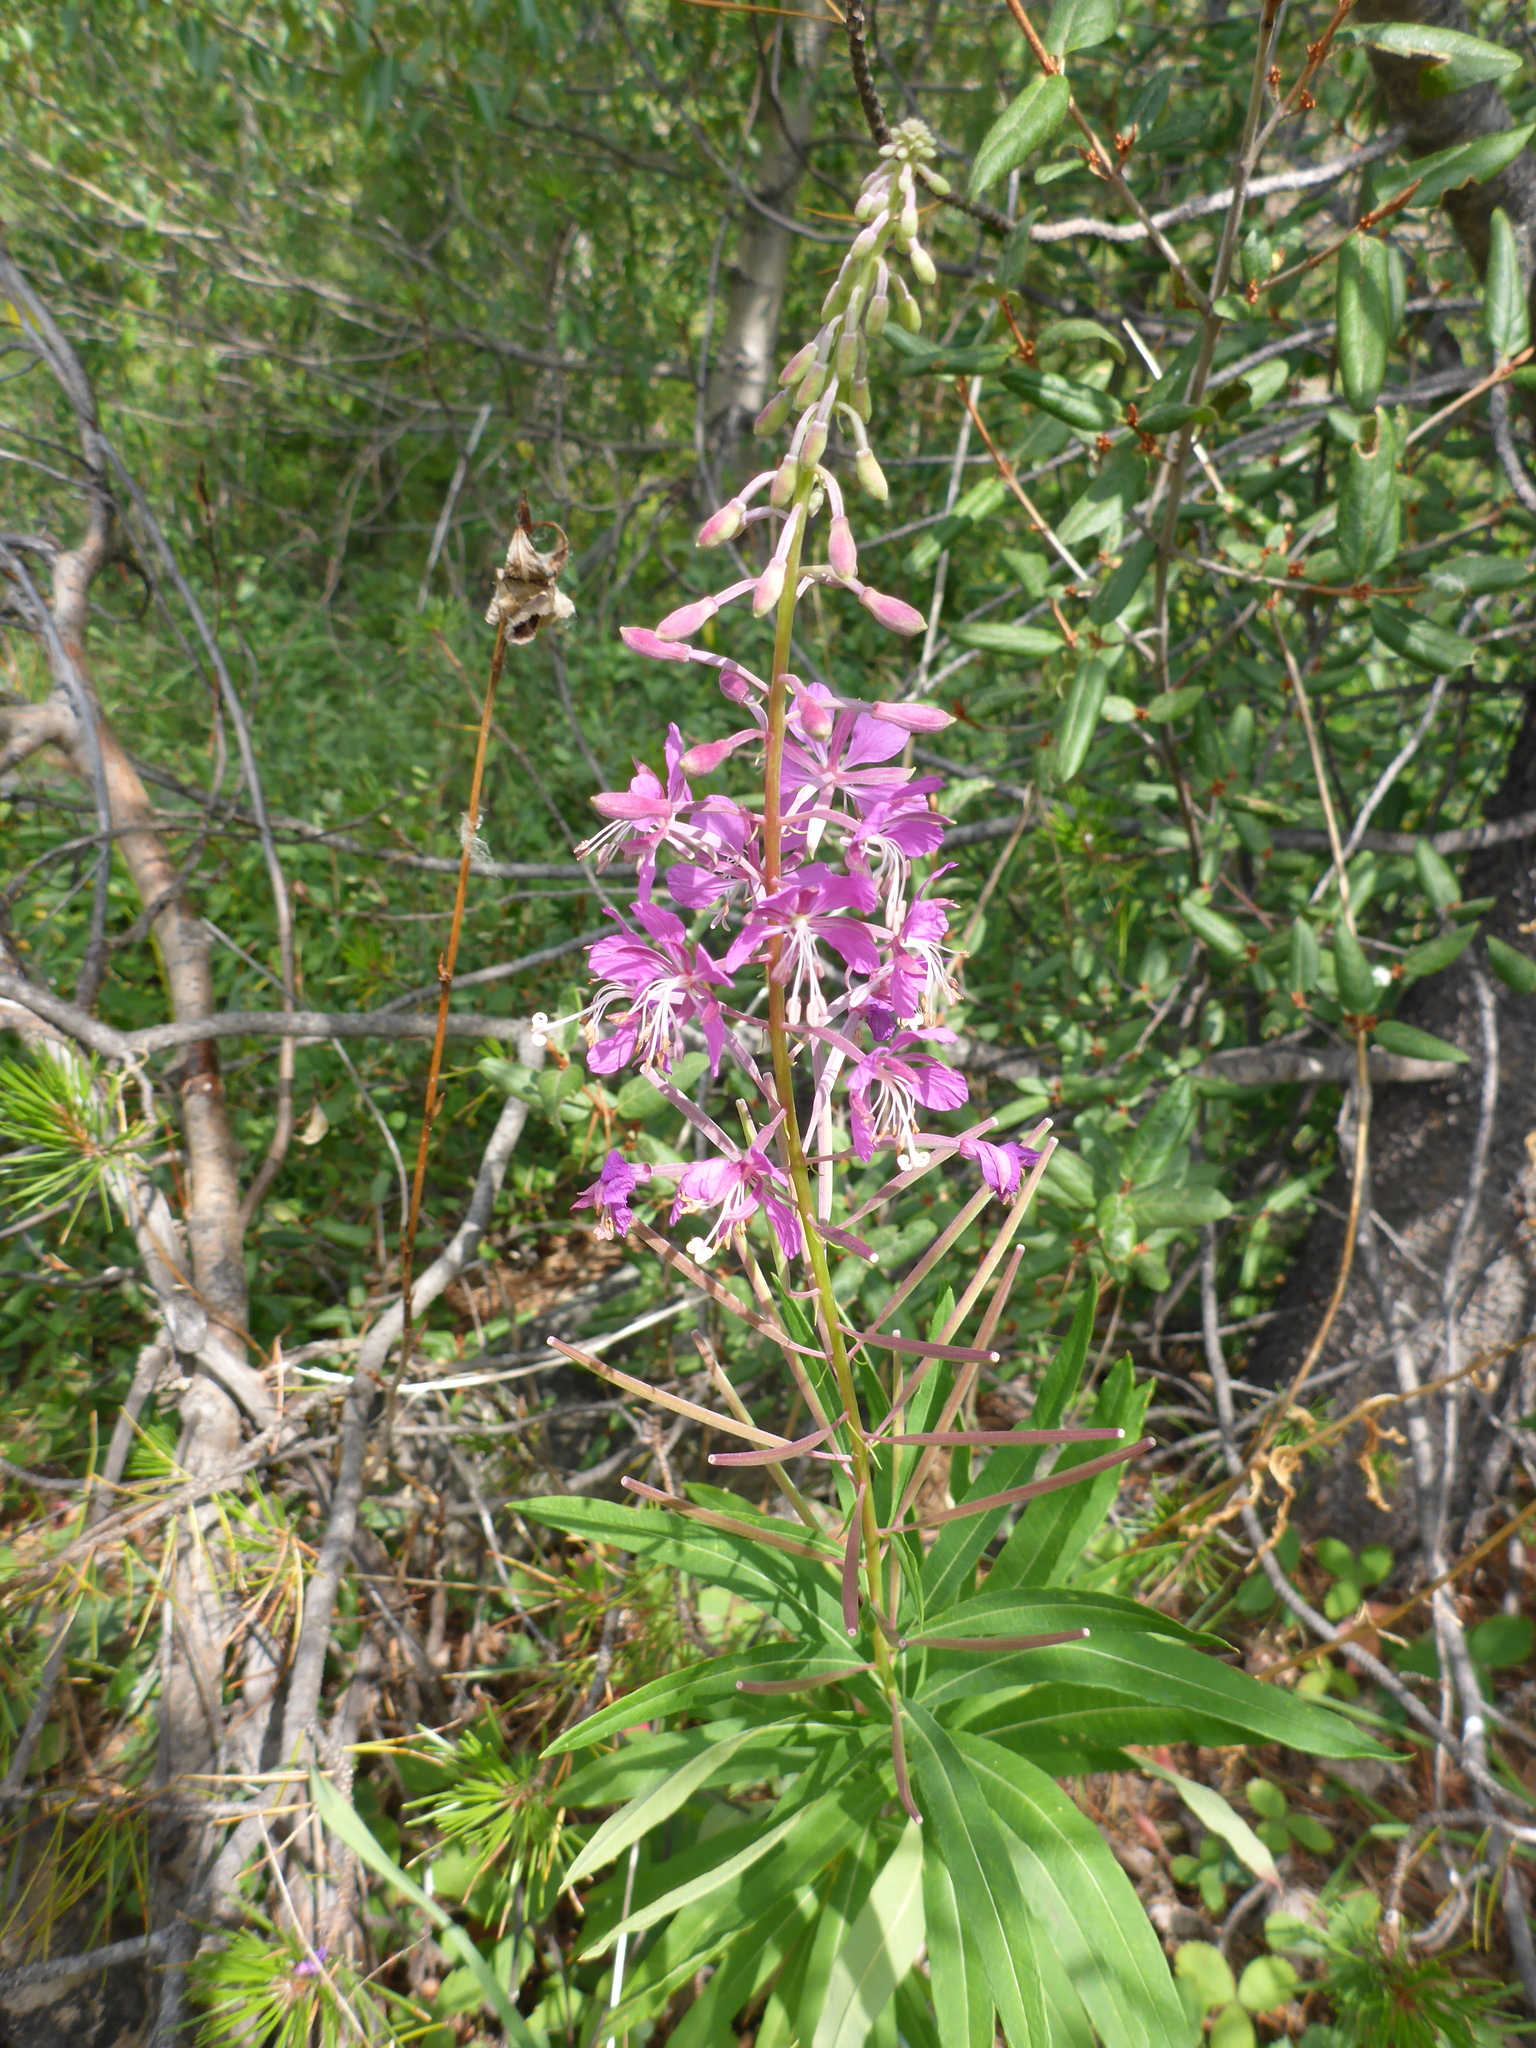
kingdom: Plantae
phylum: Tracheophyta
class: Magnoliopsida
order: Myrtales
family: Onagraceae
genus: Chamaenerion
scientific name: Chamaenerion angustifolium
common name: Fireweed
